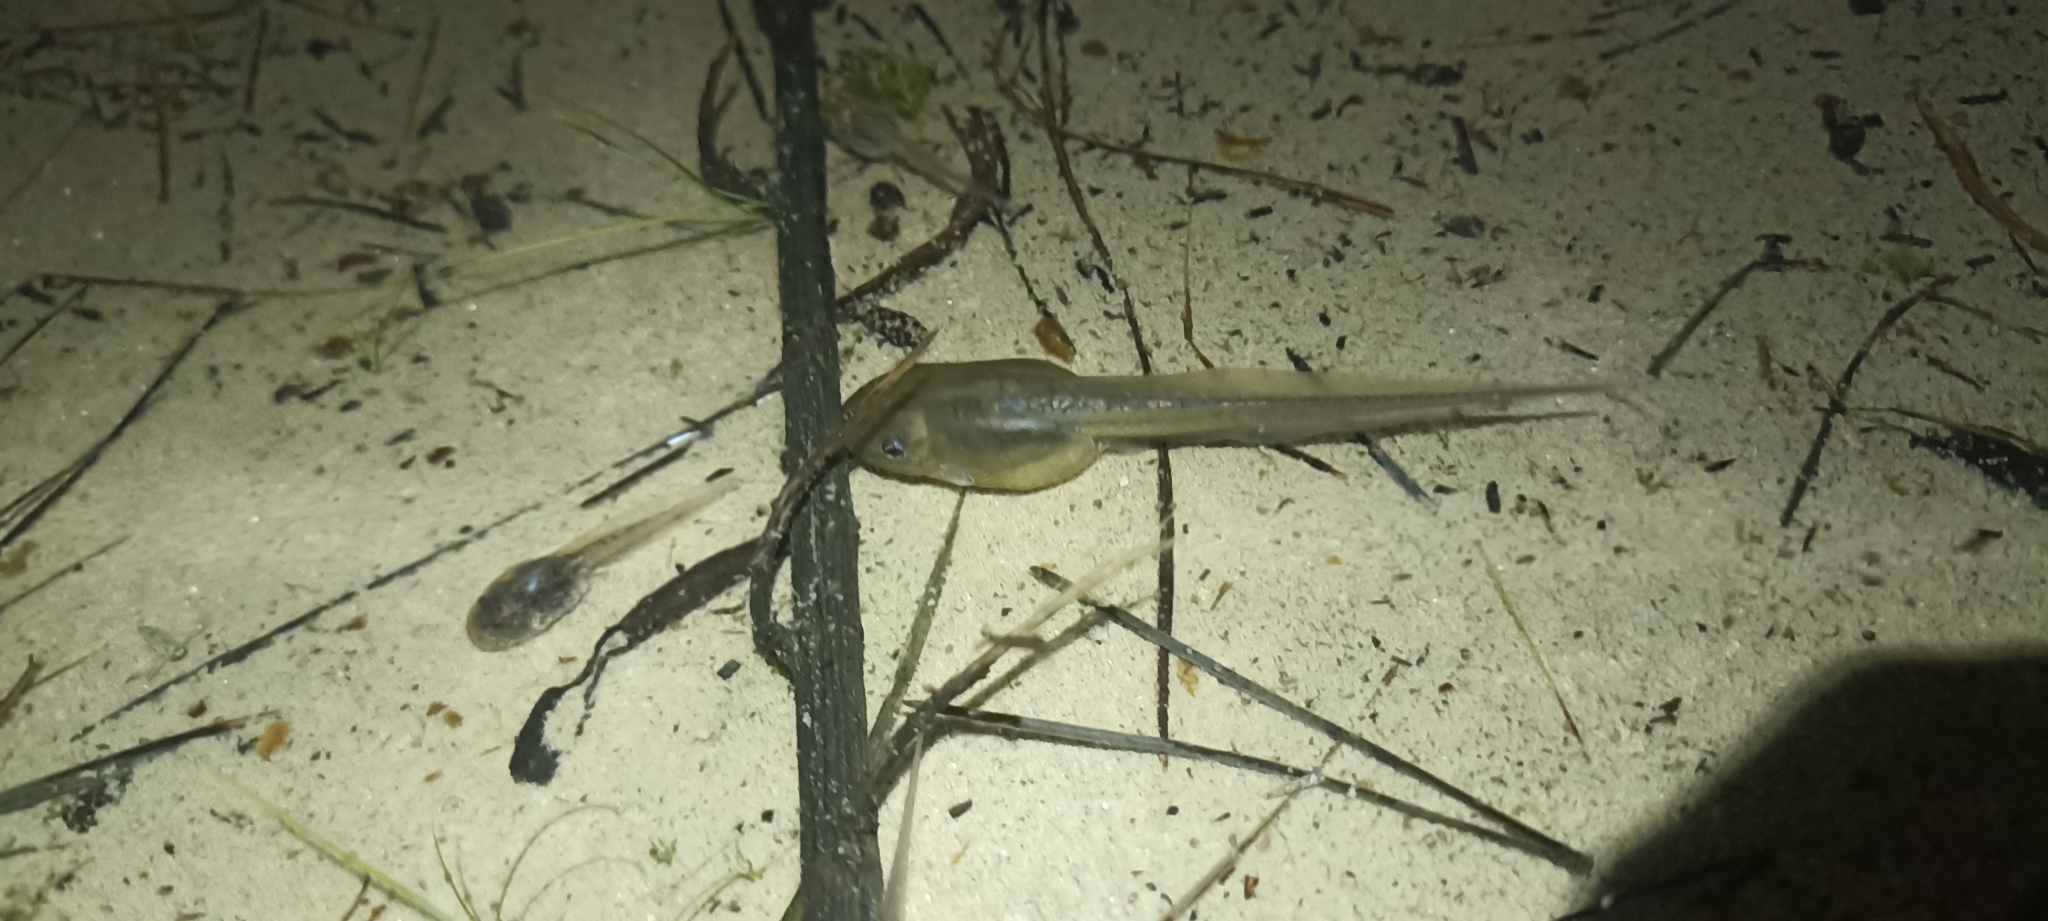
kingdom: Animalia
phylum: Chordata
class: Amphibia
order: Anura
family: Pelobatidae
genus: Pelobates
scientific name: Pelobates cultripes
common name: Western spadefoot
